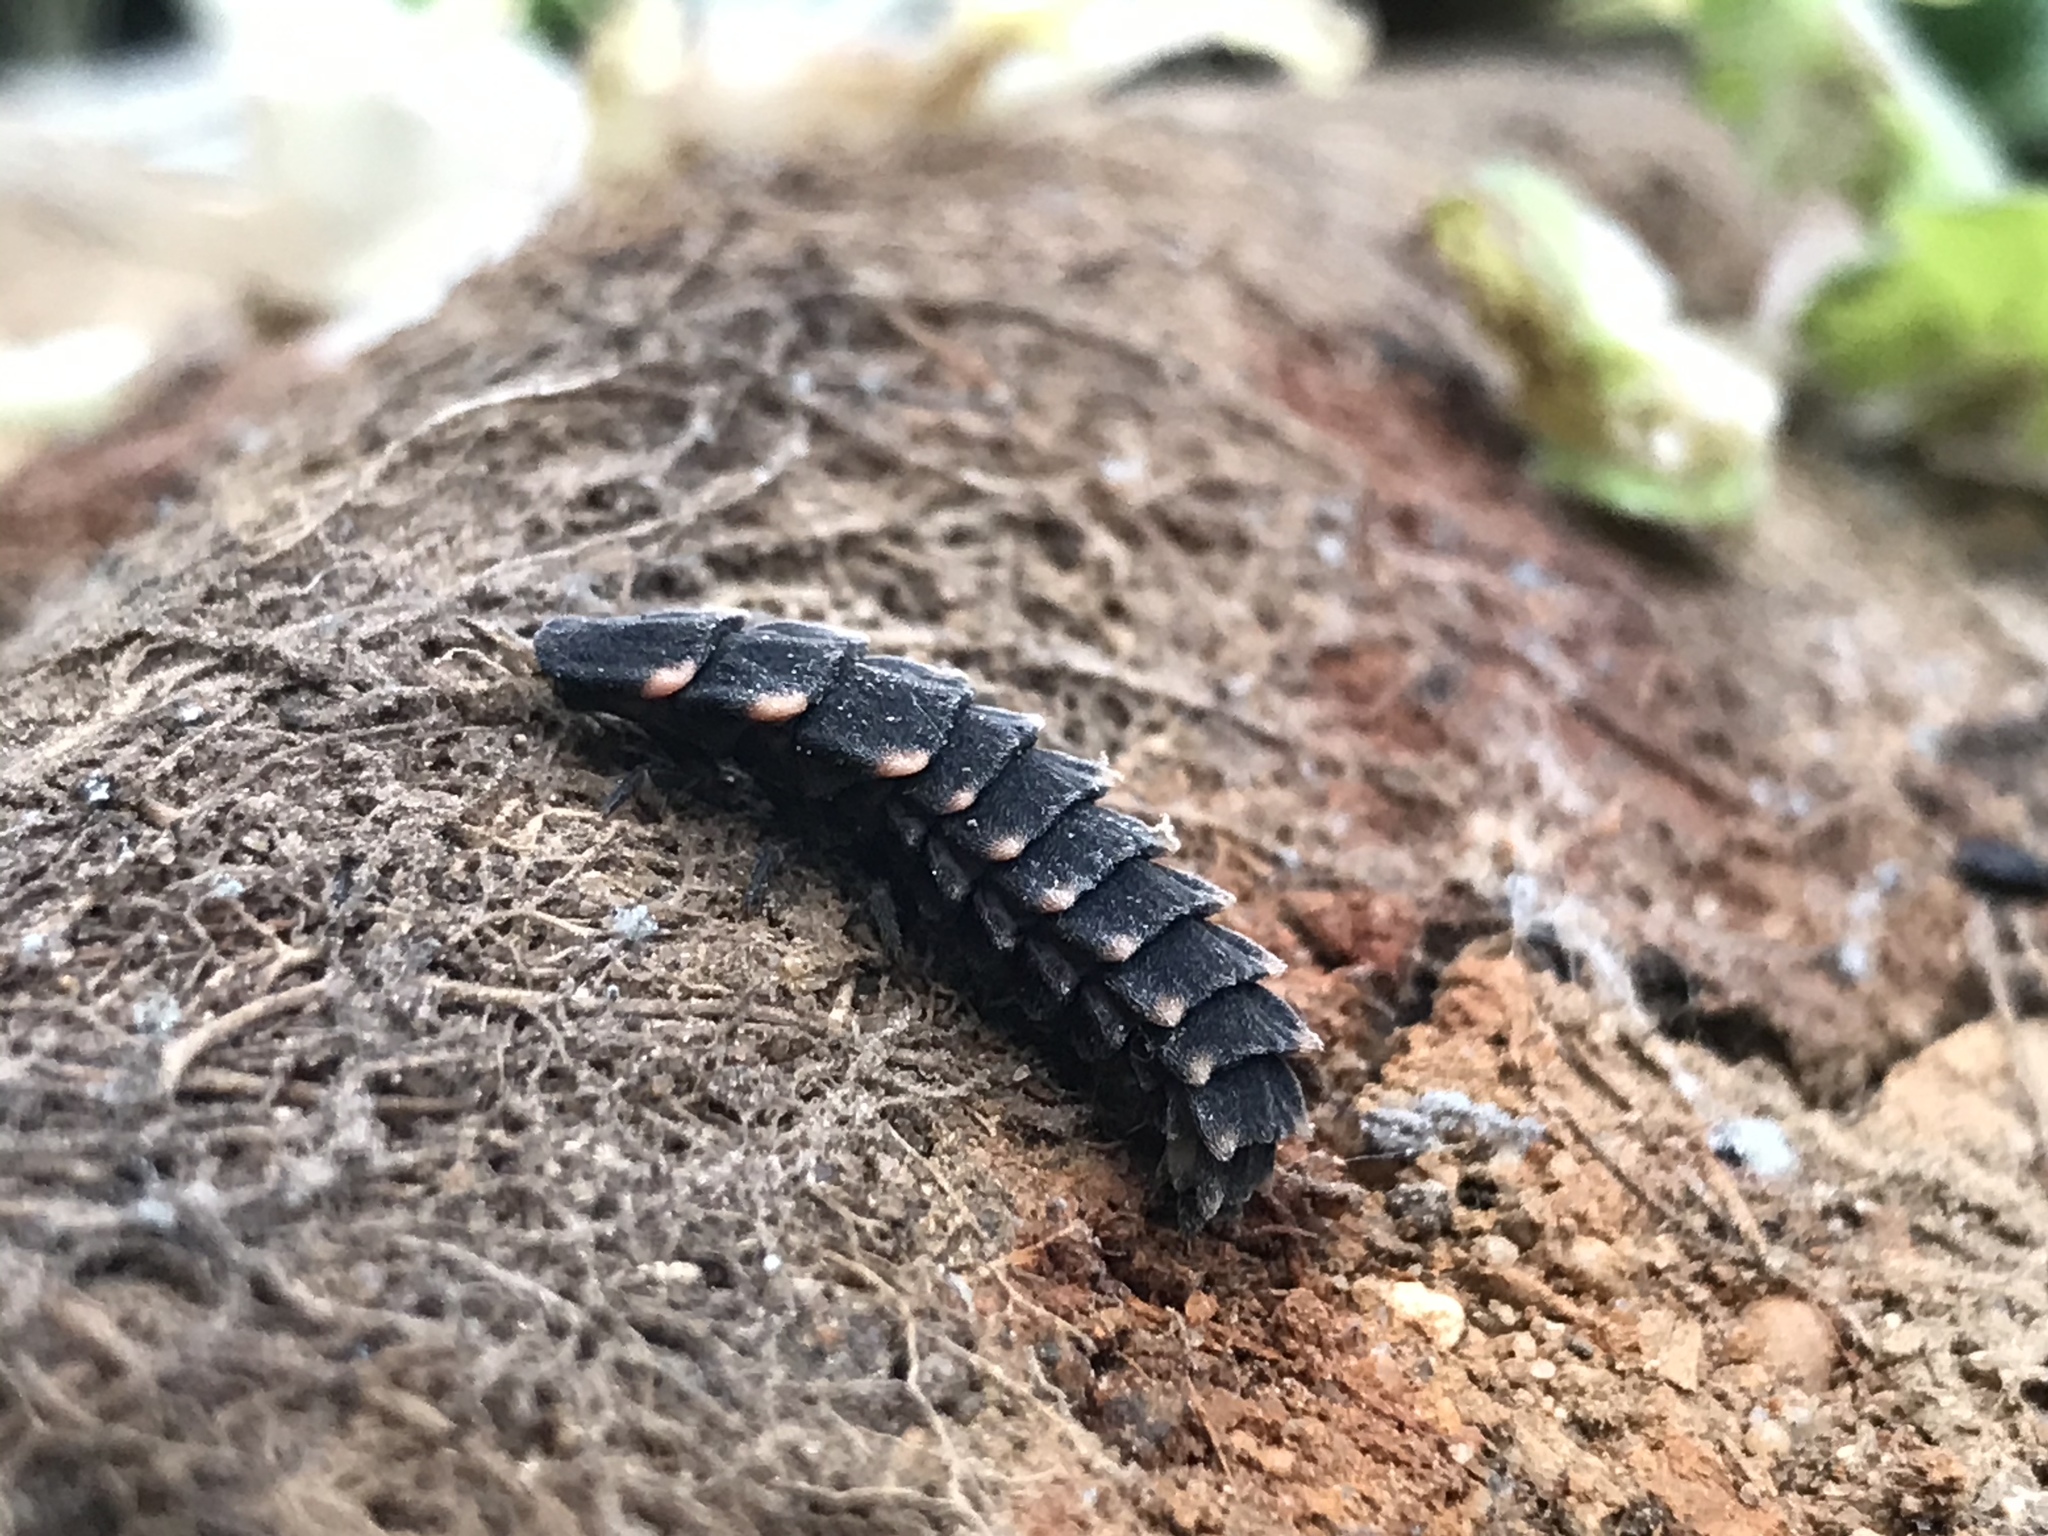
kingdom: Animalia
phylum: Arthropoda
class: Insecta
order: Coleoptera
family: Lampyridae
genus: Lampyris
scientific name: Lampyris noctiluca
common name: Glow-worm
